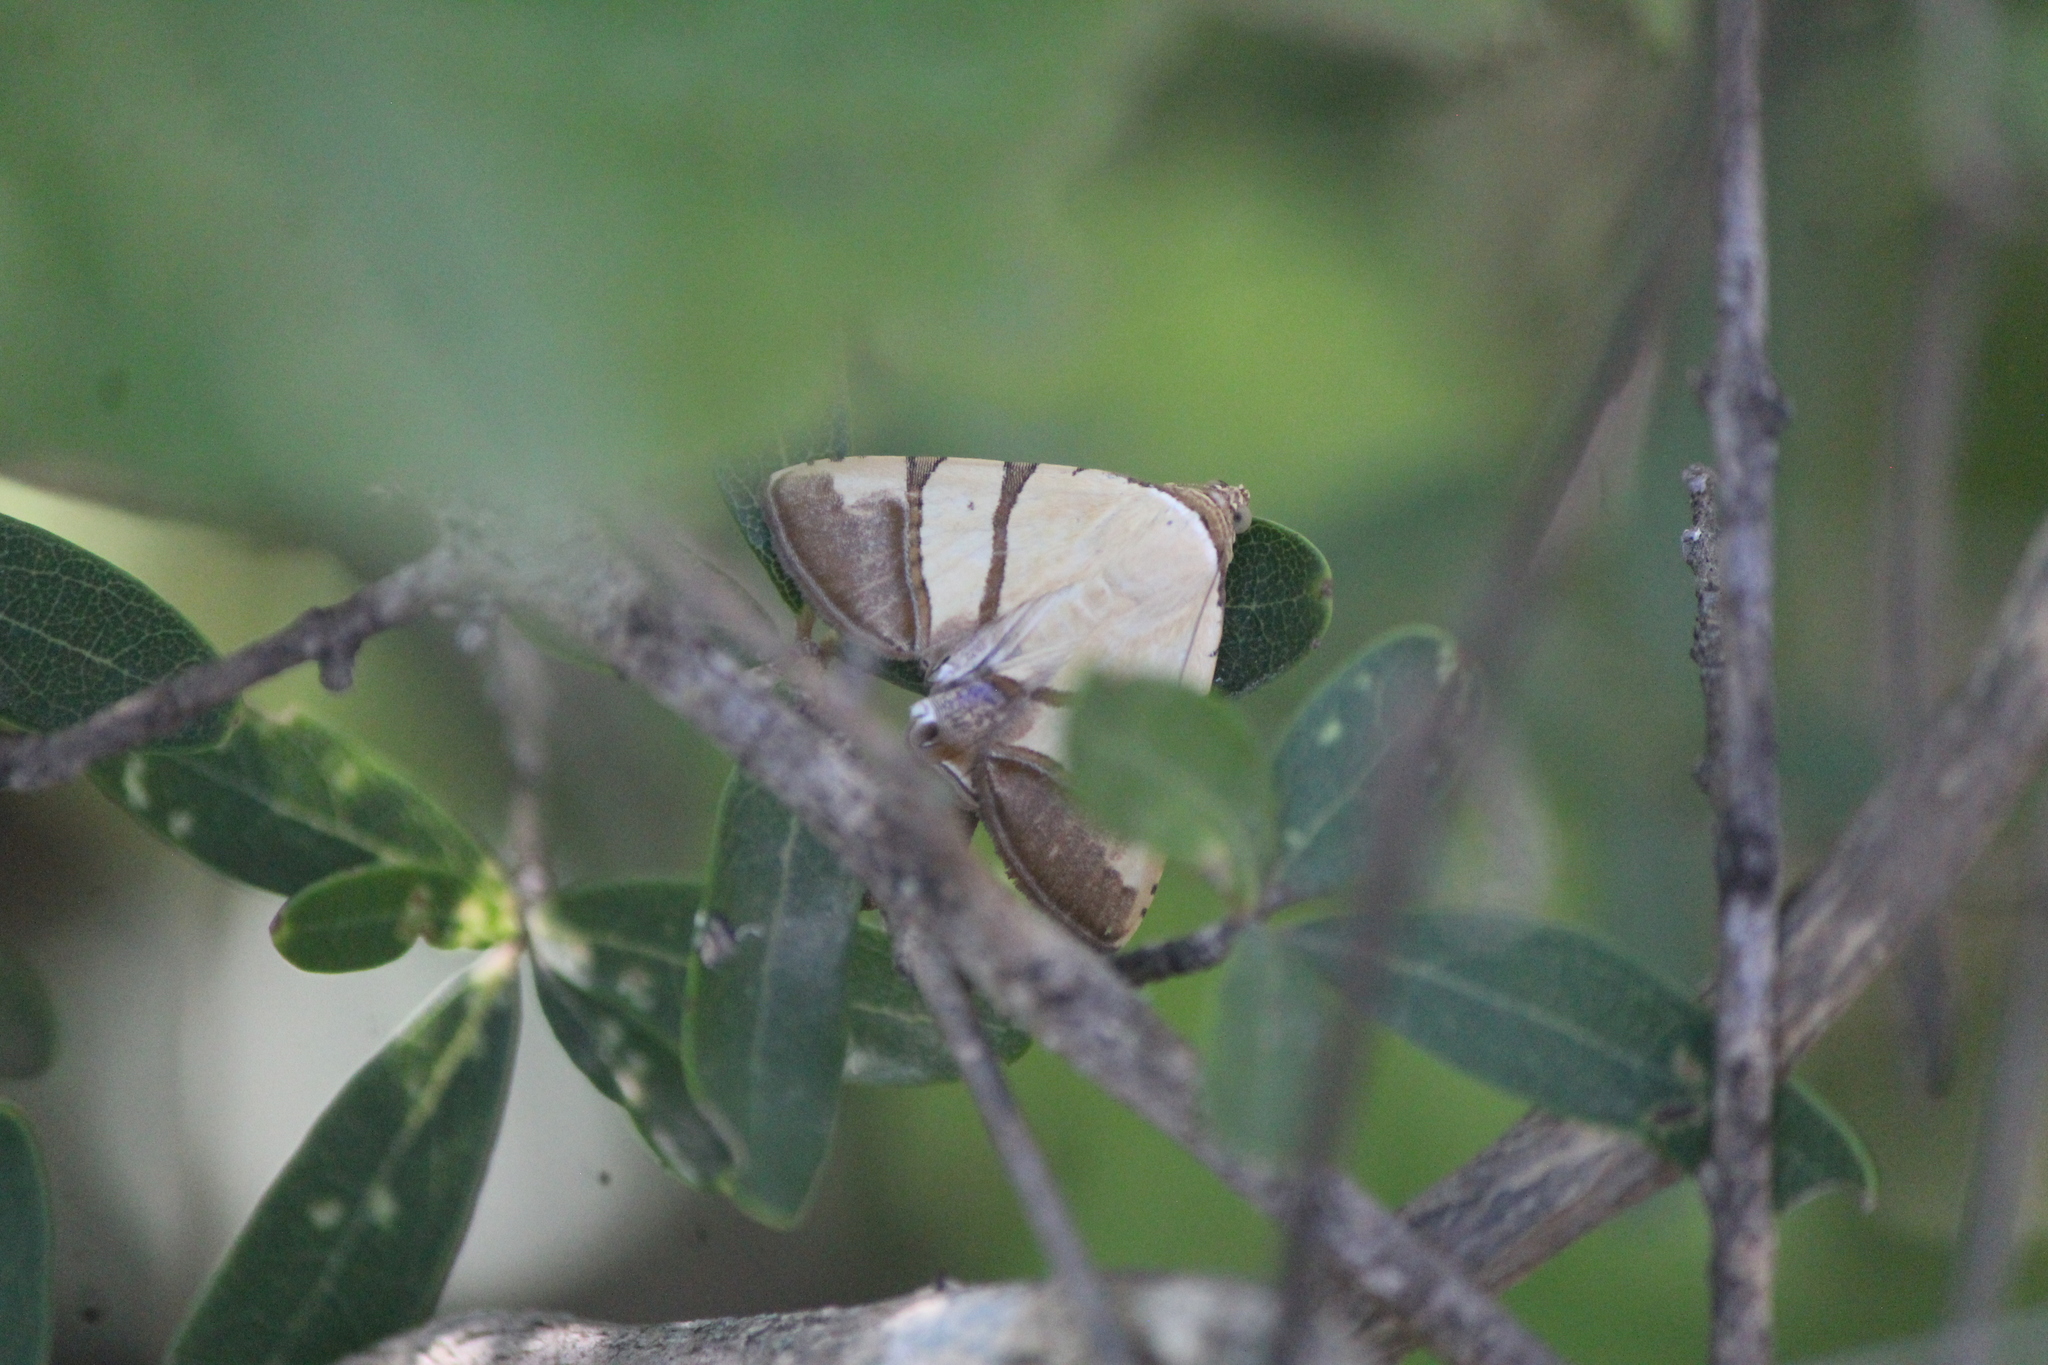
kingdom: Animalia
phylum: Arthropoda
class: Insecta
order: Lepidoptera
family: Erebidae
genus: Eulepidotis
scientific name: Eulepidotis julianata
